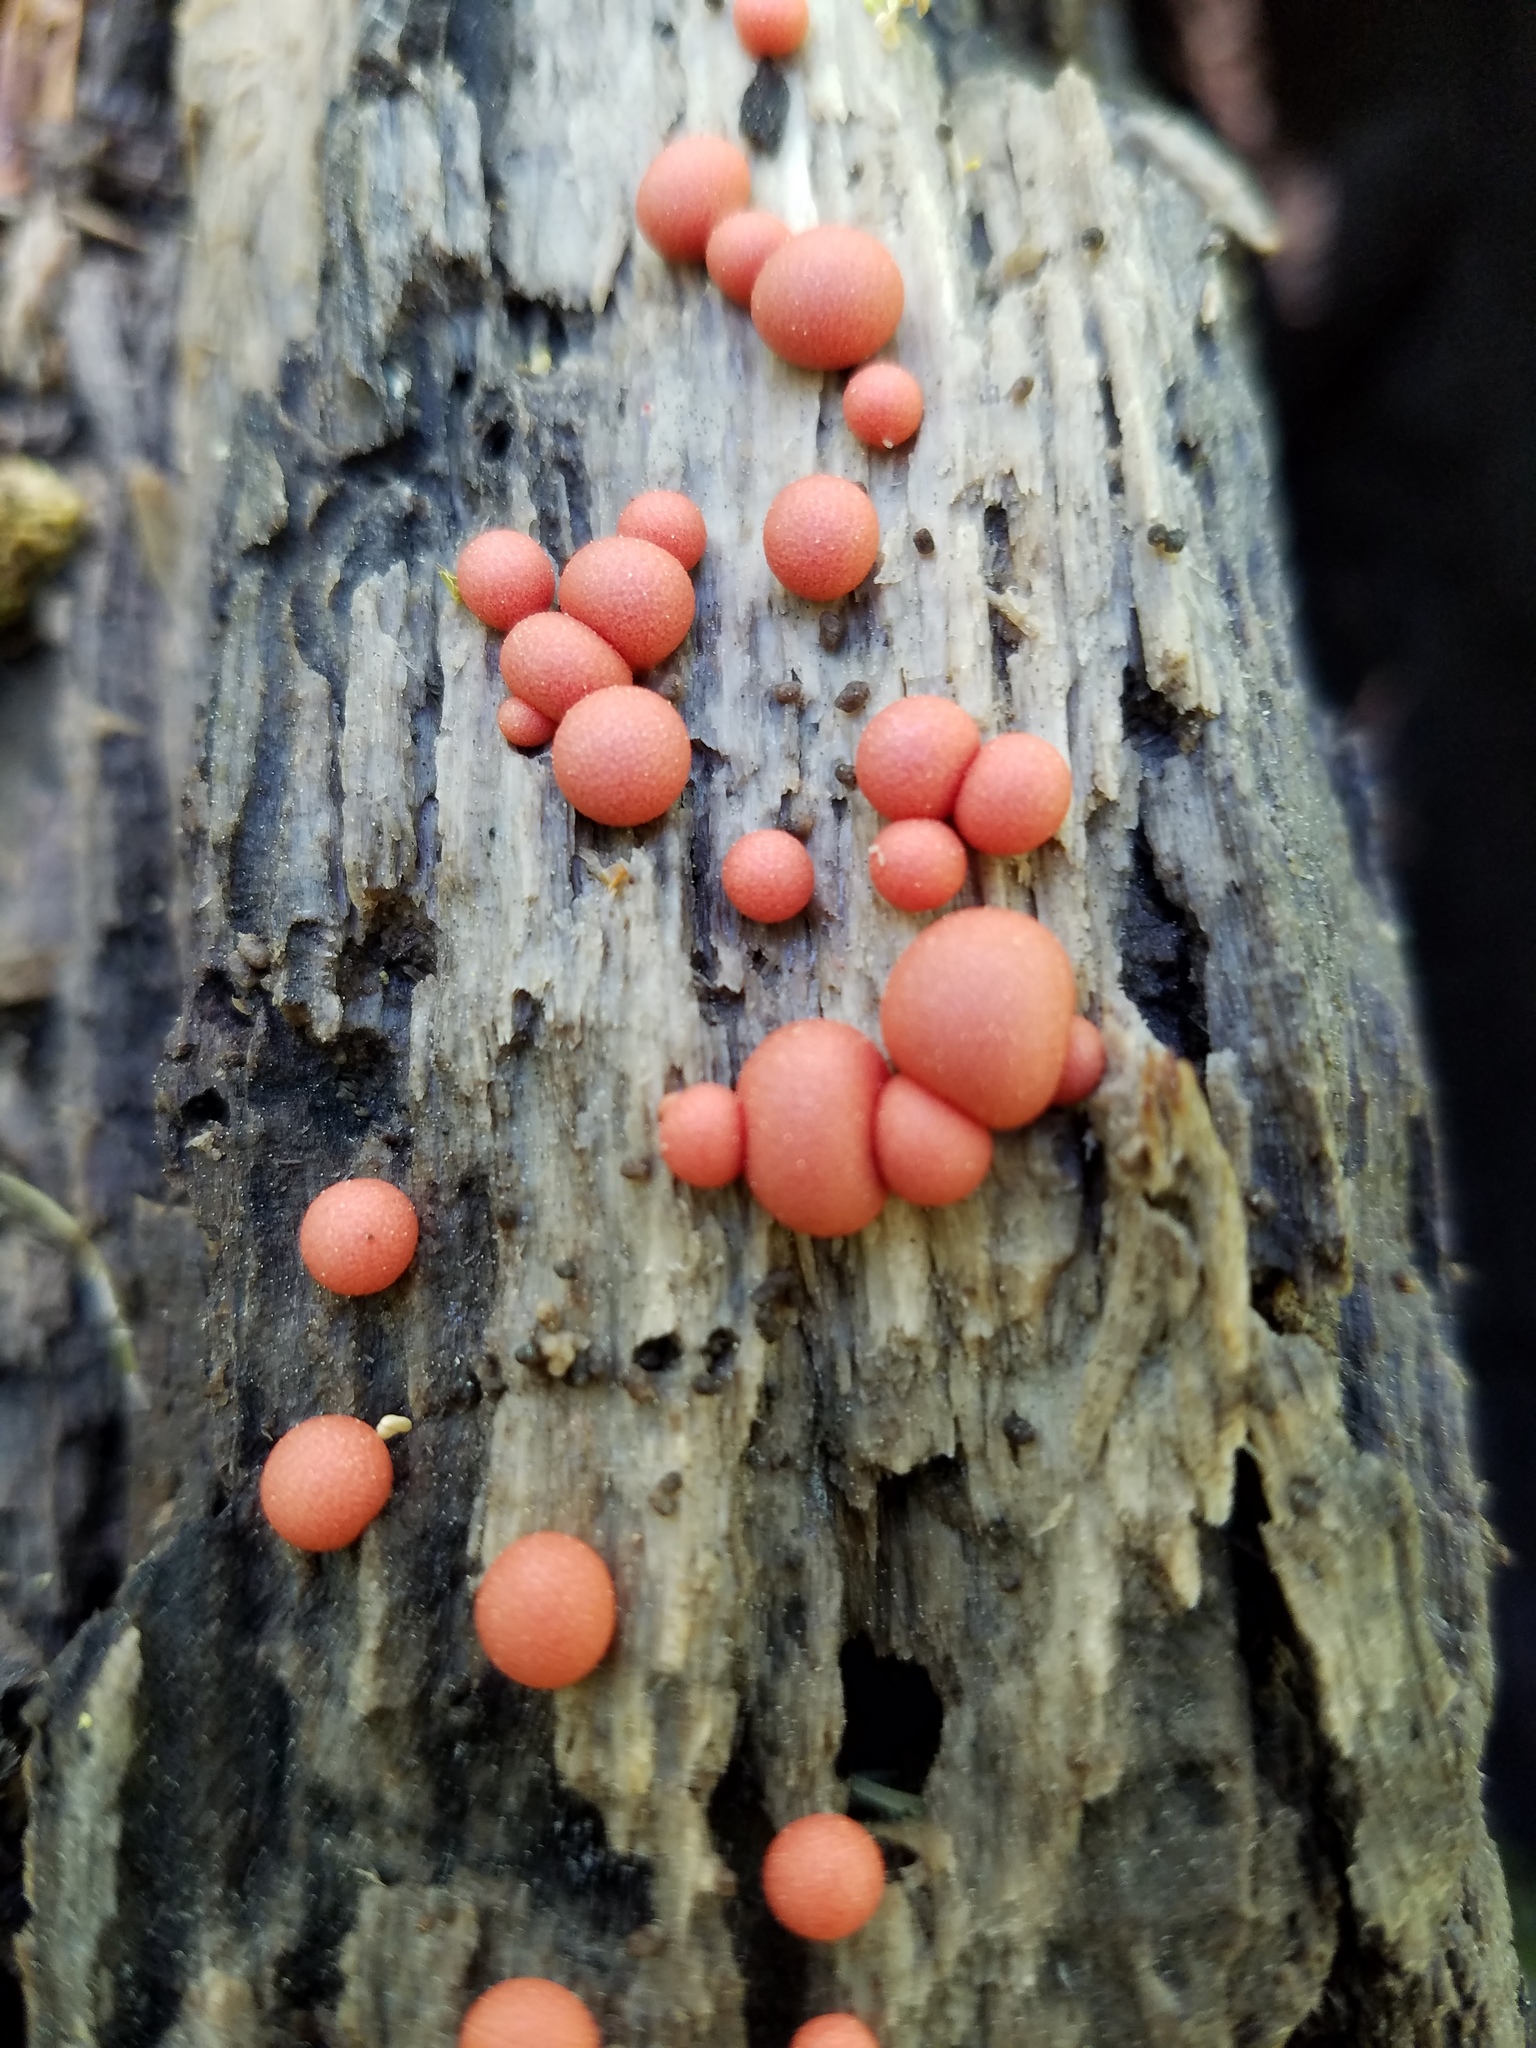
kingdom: Protozoa
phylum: Mycetozoa
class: Myxomycetes
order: Cribrariales
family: Tubiferaceae
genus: Lycogala
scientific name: Lycogala epidendrum
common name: Wolf's milk
